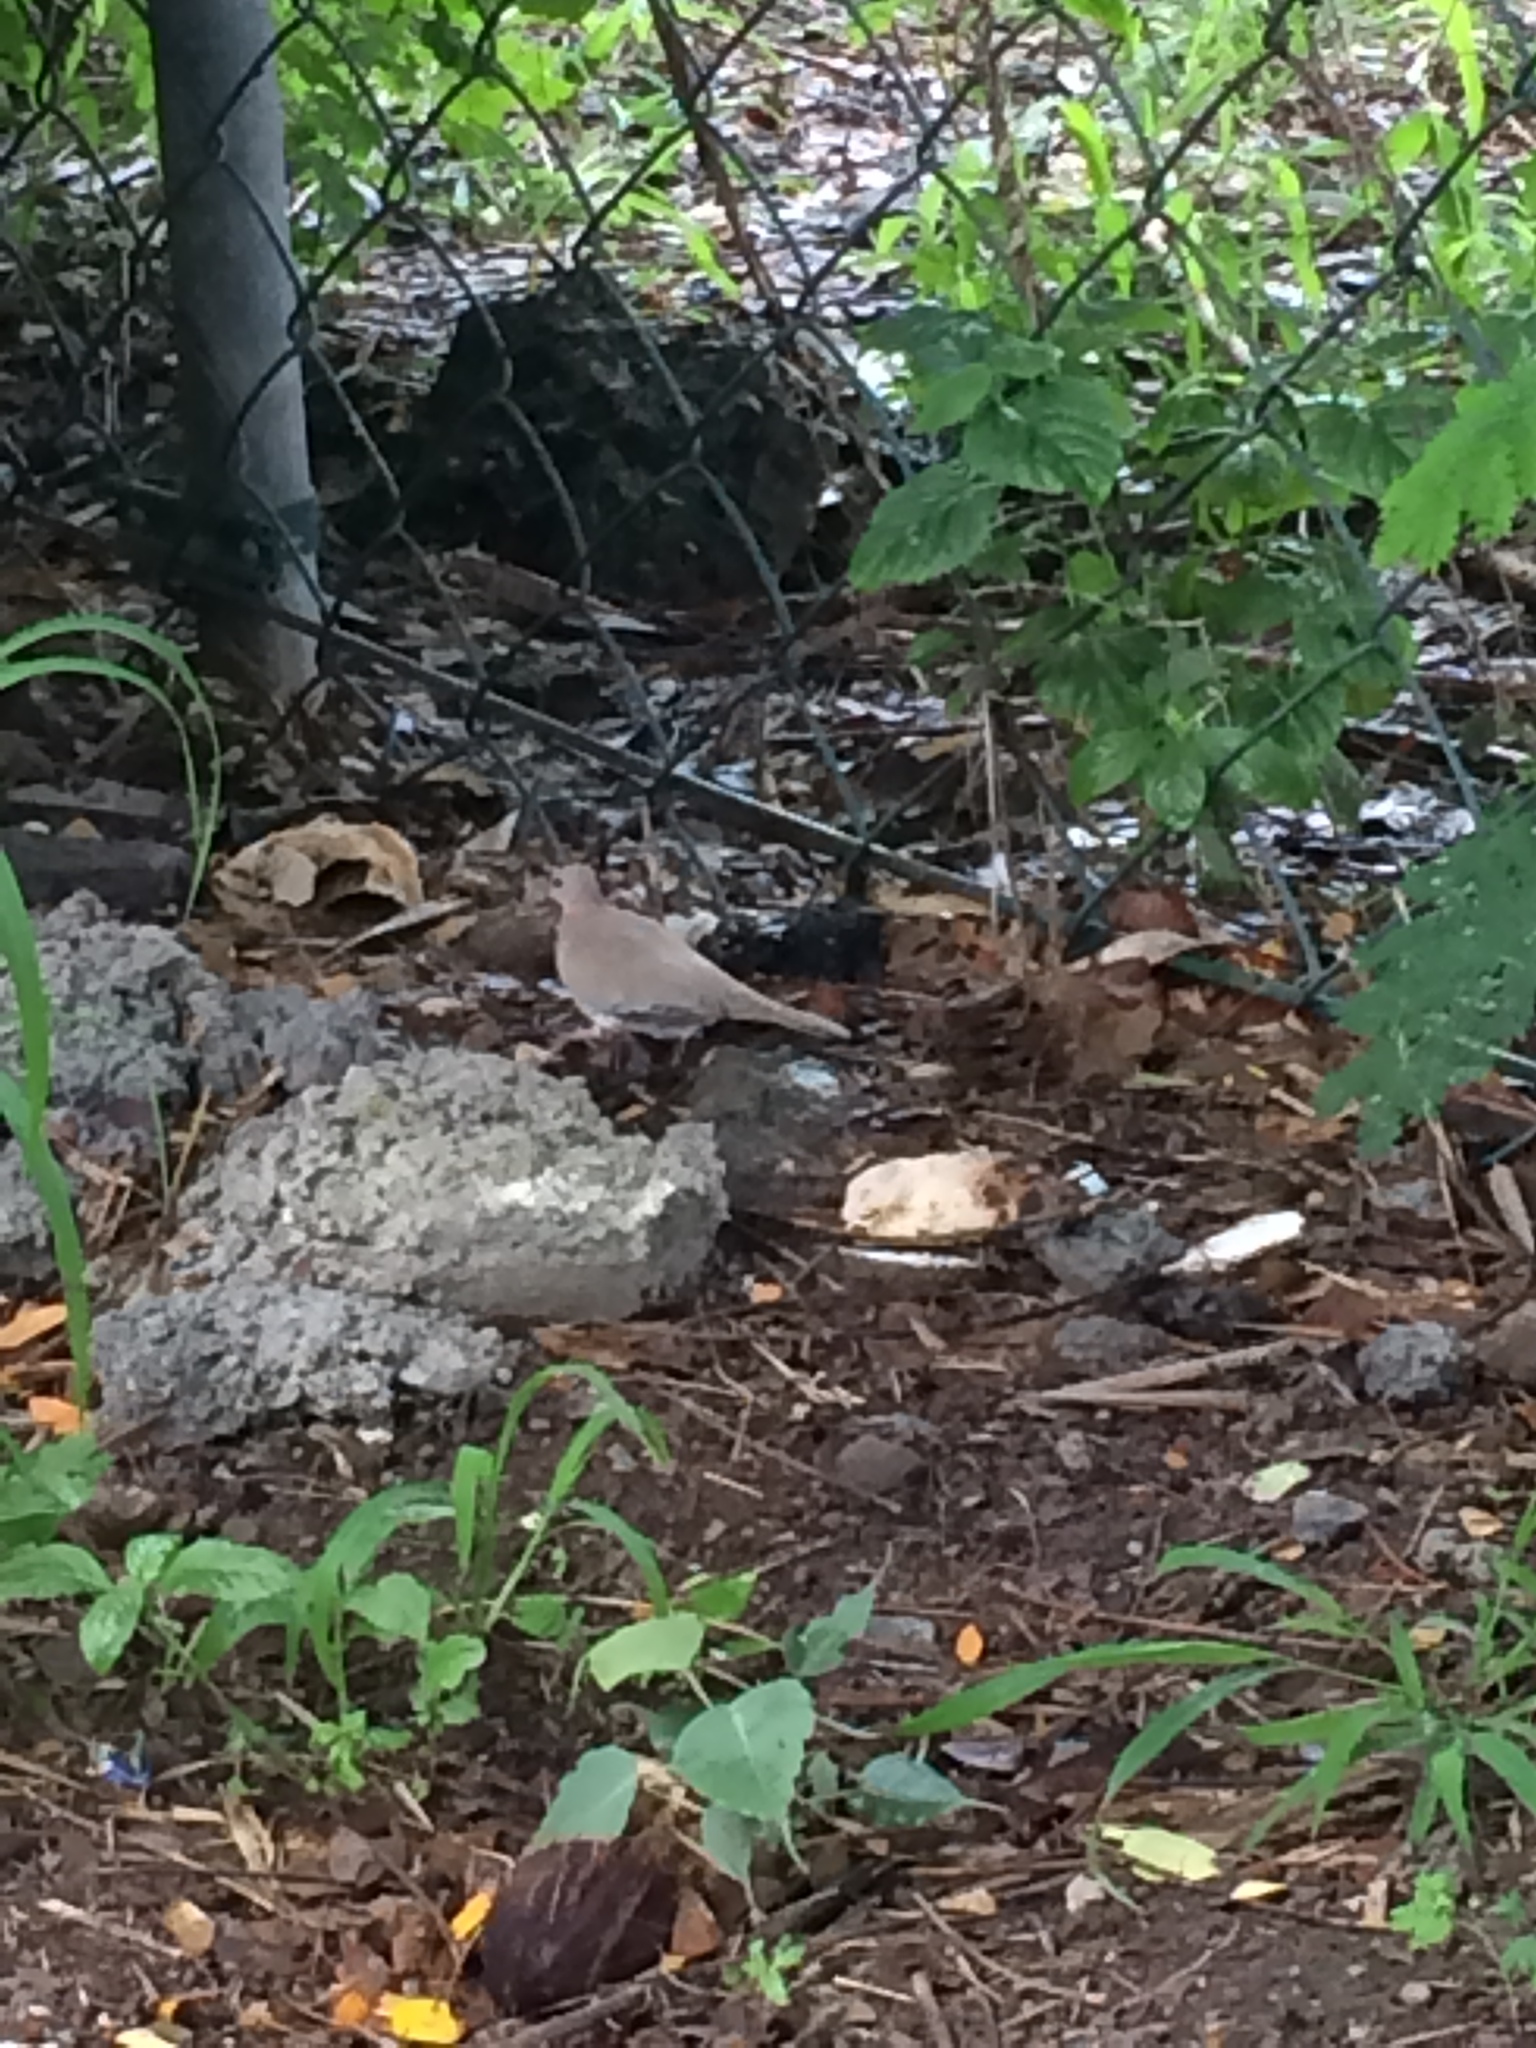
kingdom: Animalia
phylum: Chordata
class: Aves
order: Columbiformes
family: Columbidae
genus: Spilopelia
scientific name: Spilopelia senegalensis
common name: Laughing dove
